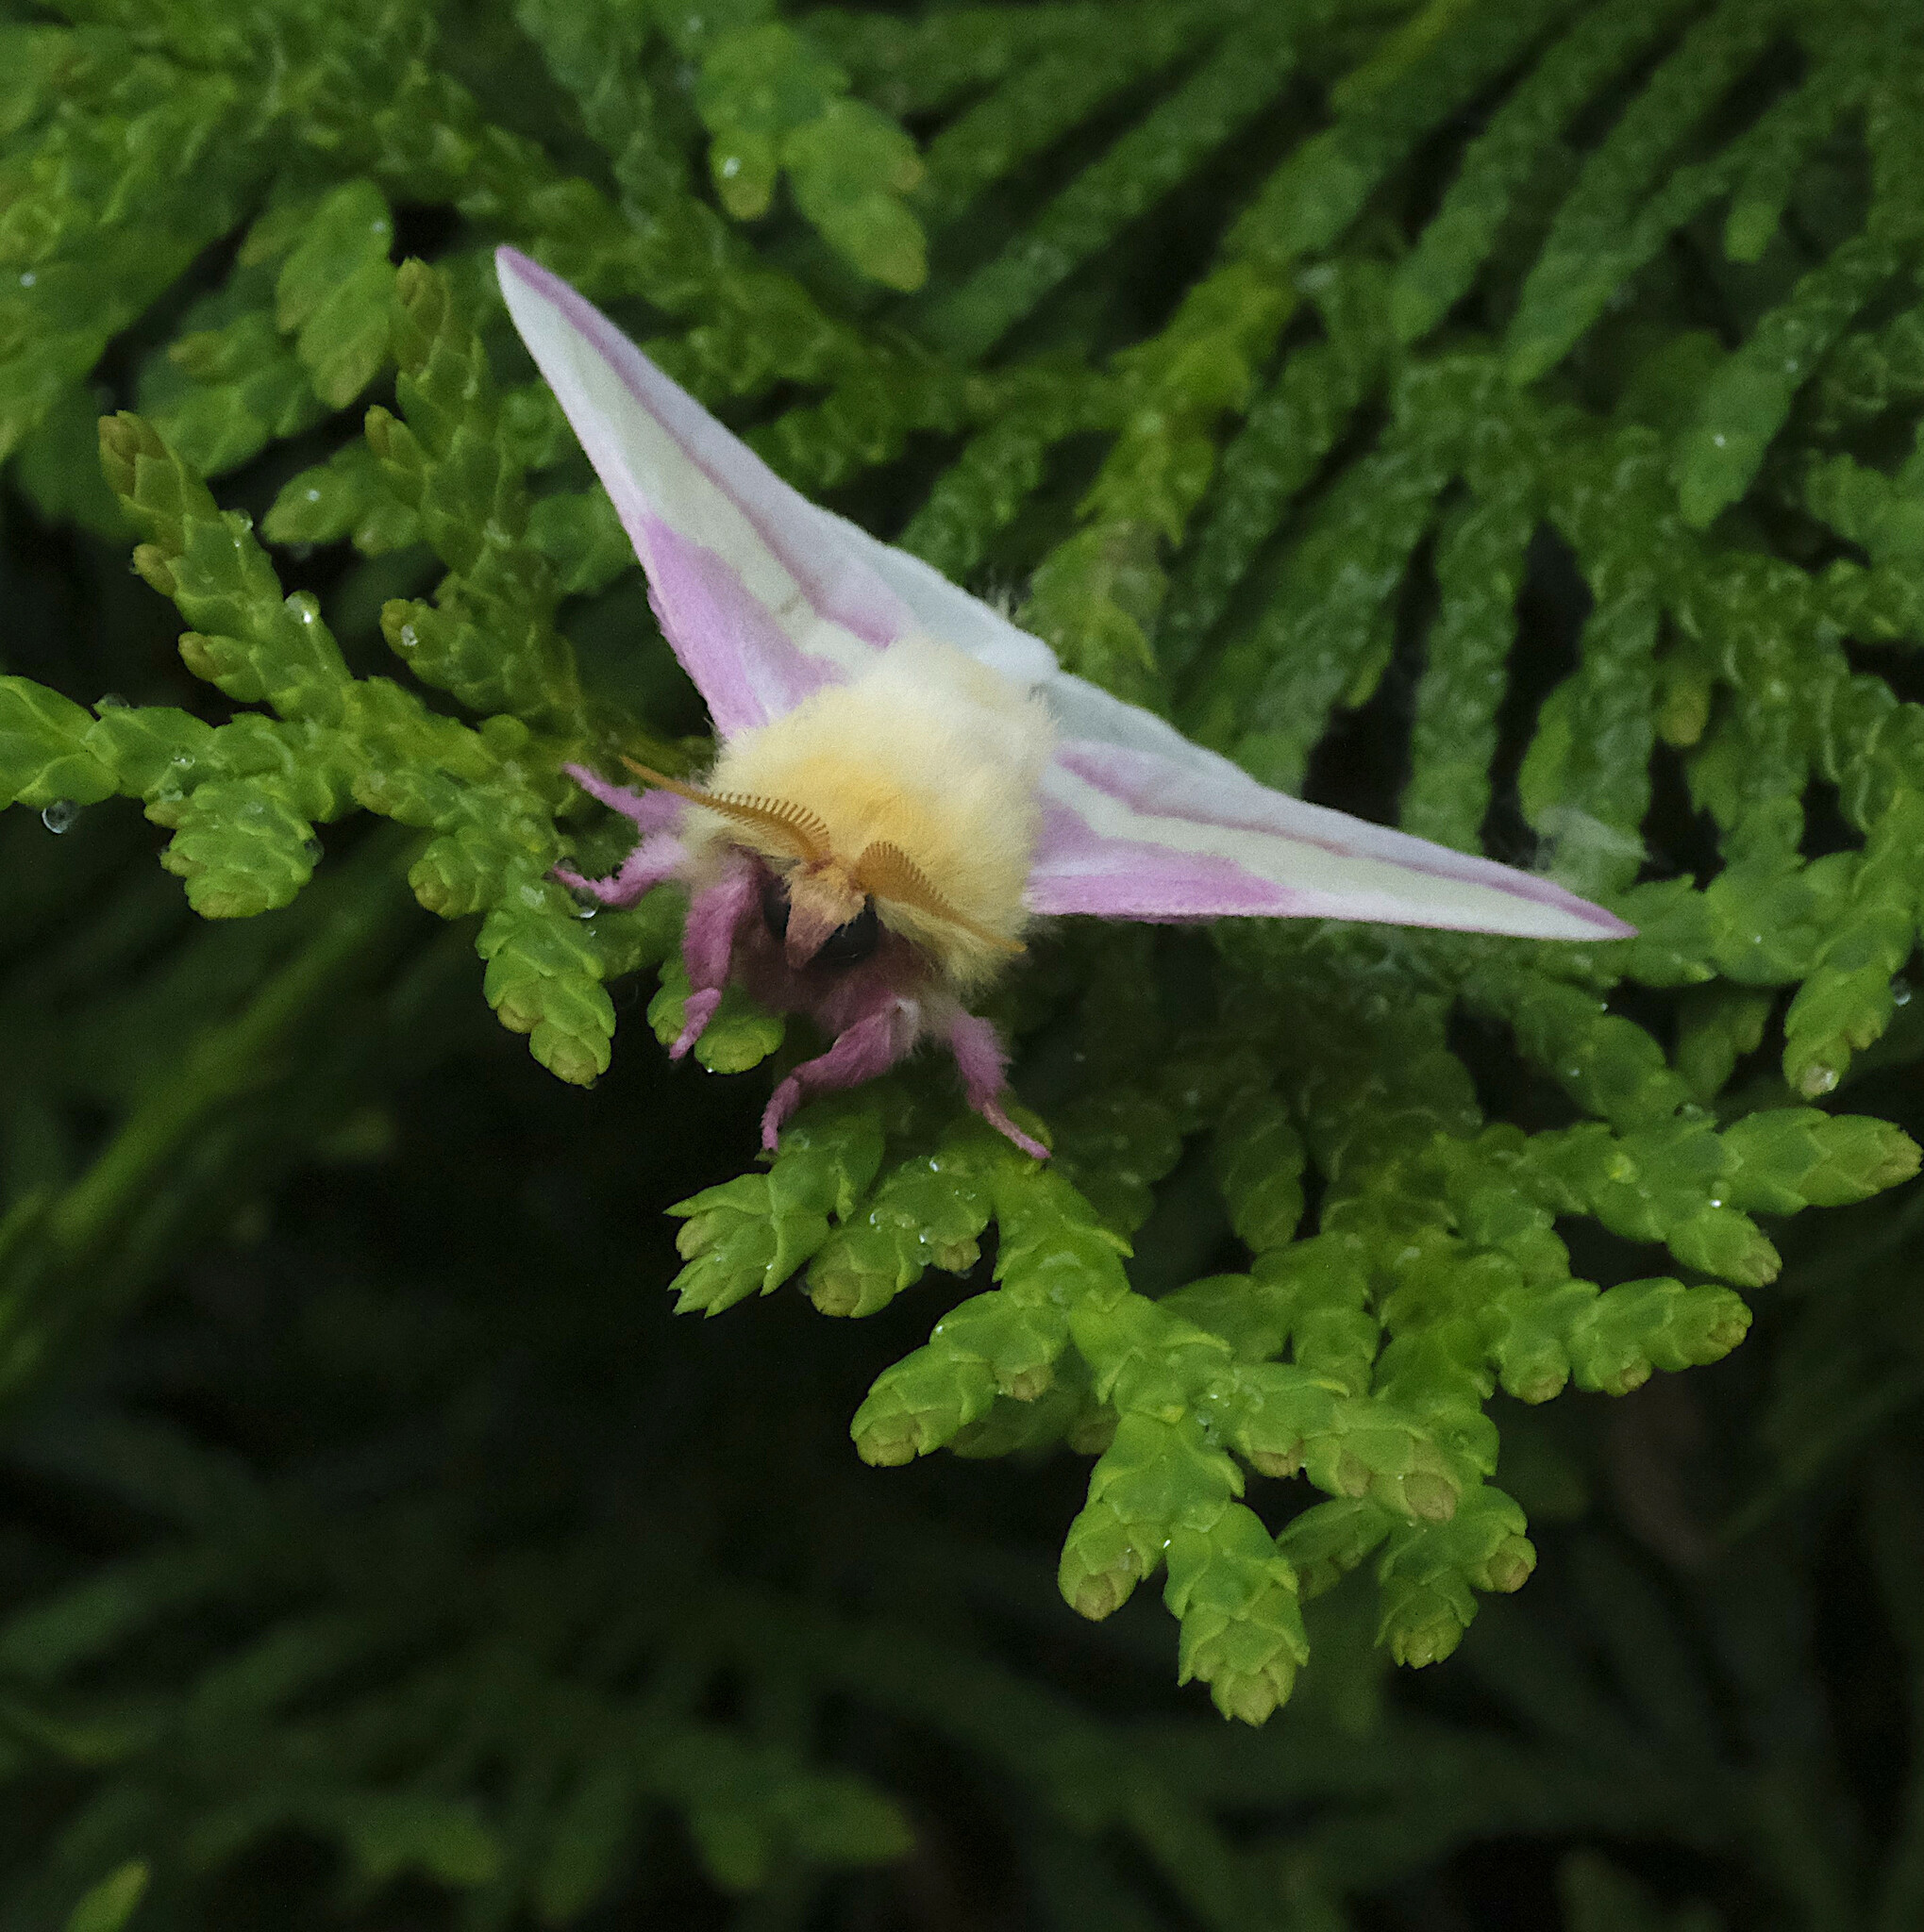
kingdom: Animalia
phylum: Arthropoda
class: Insecta
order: Lepidoptera
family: Saturniidae
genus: Dryocampa
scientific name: Dryocampa rubicunda
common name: Rosy maple moth
